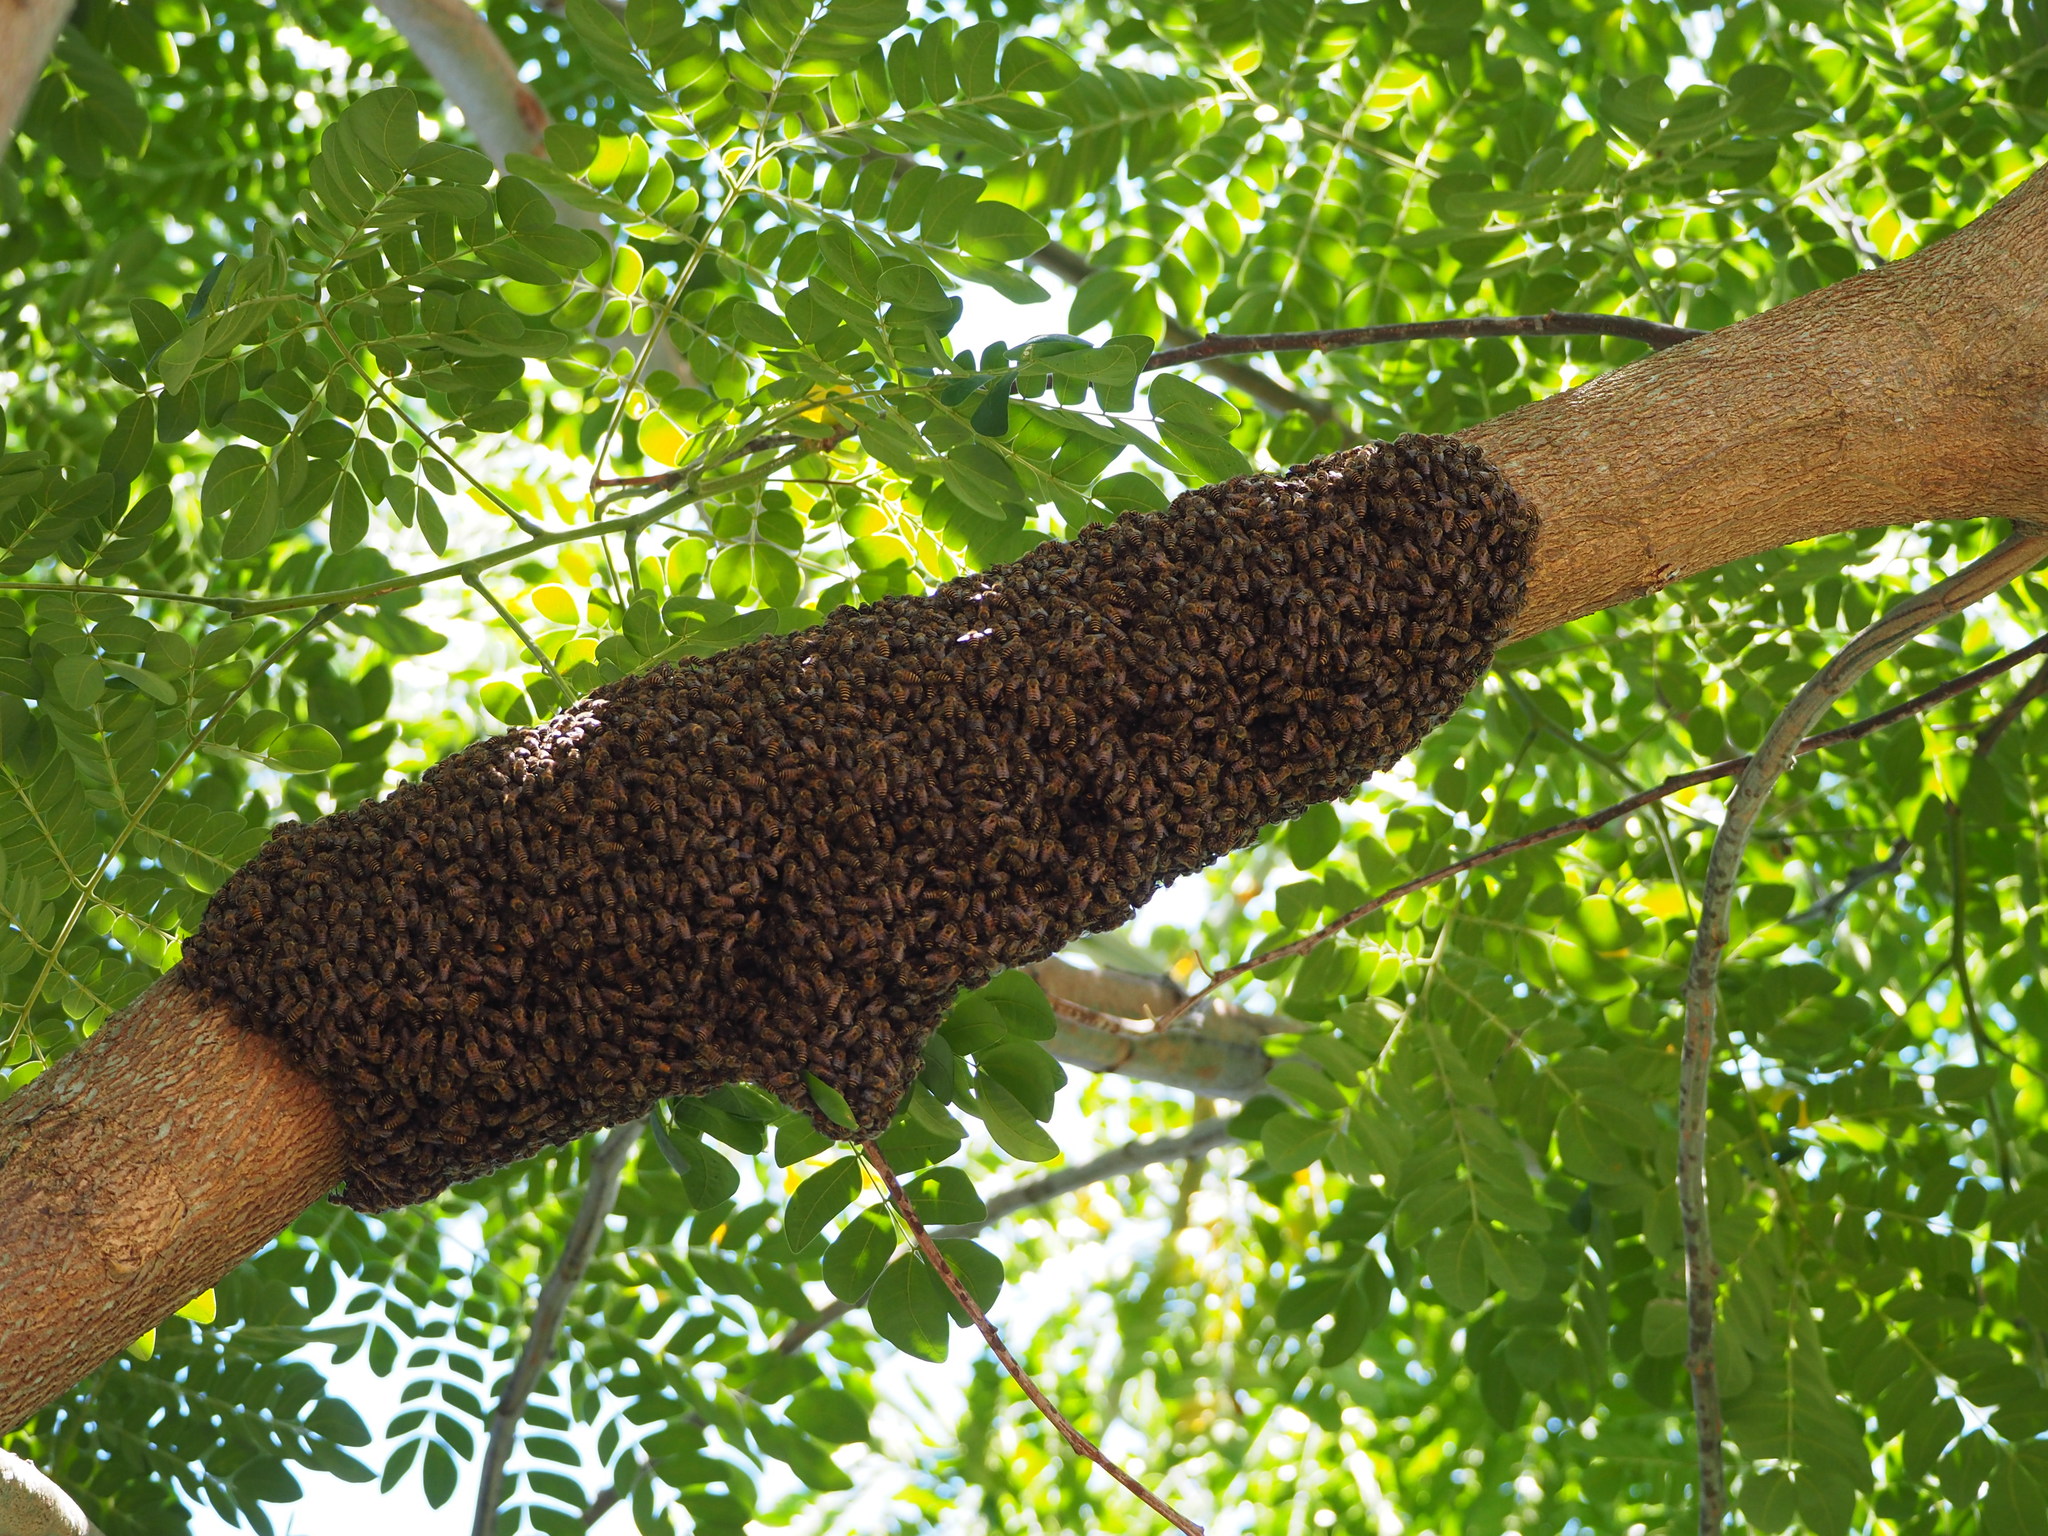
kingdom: Animalia
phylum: Arthropoda
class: Insecta
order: Hymenoptera
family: Apidae
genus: Apis
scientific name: Apis cerana
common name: Honey bee
